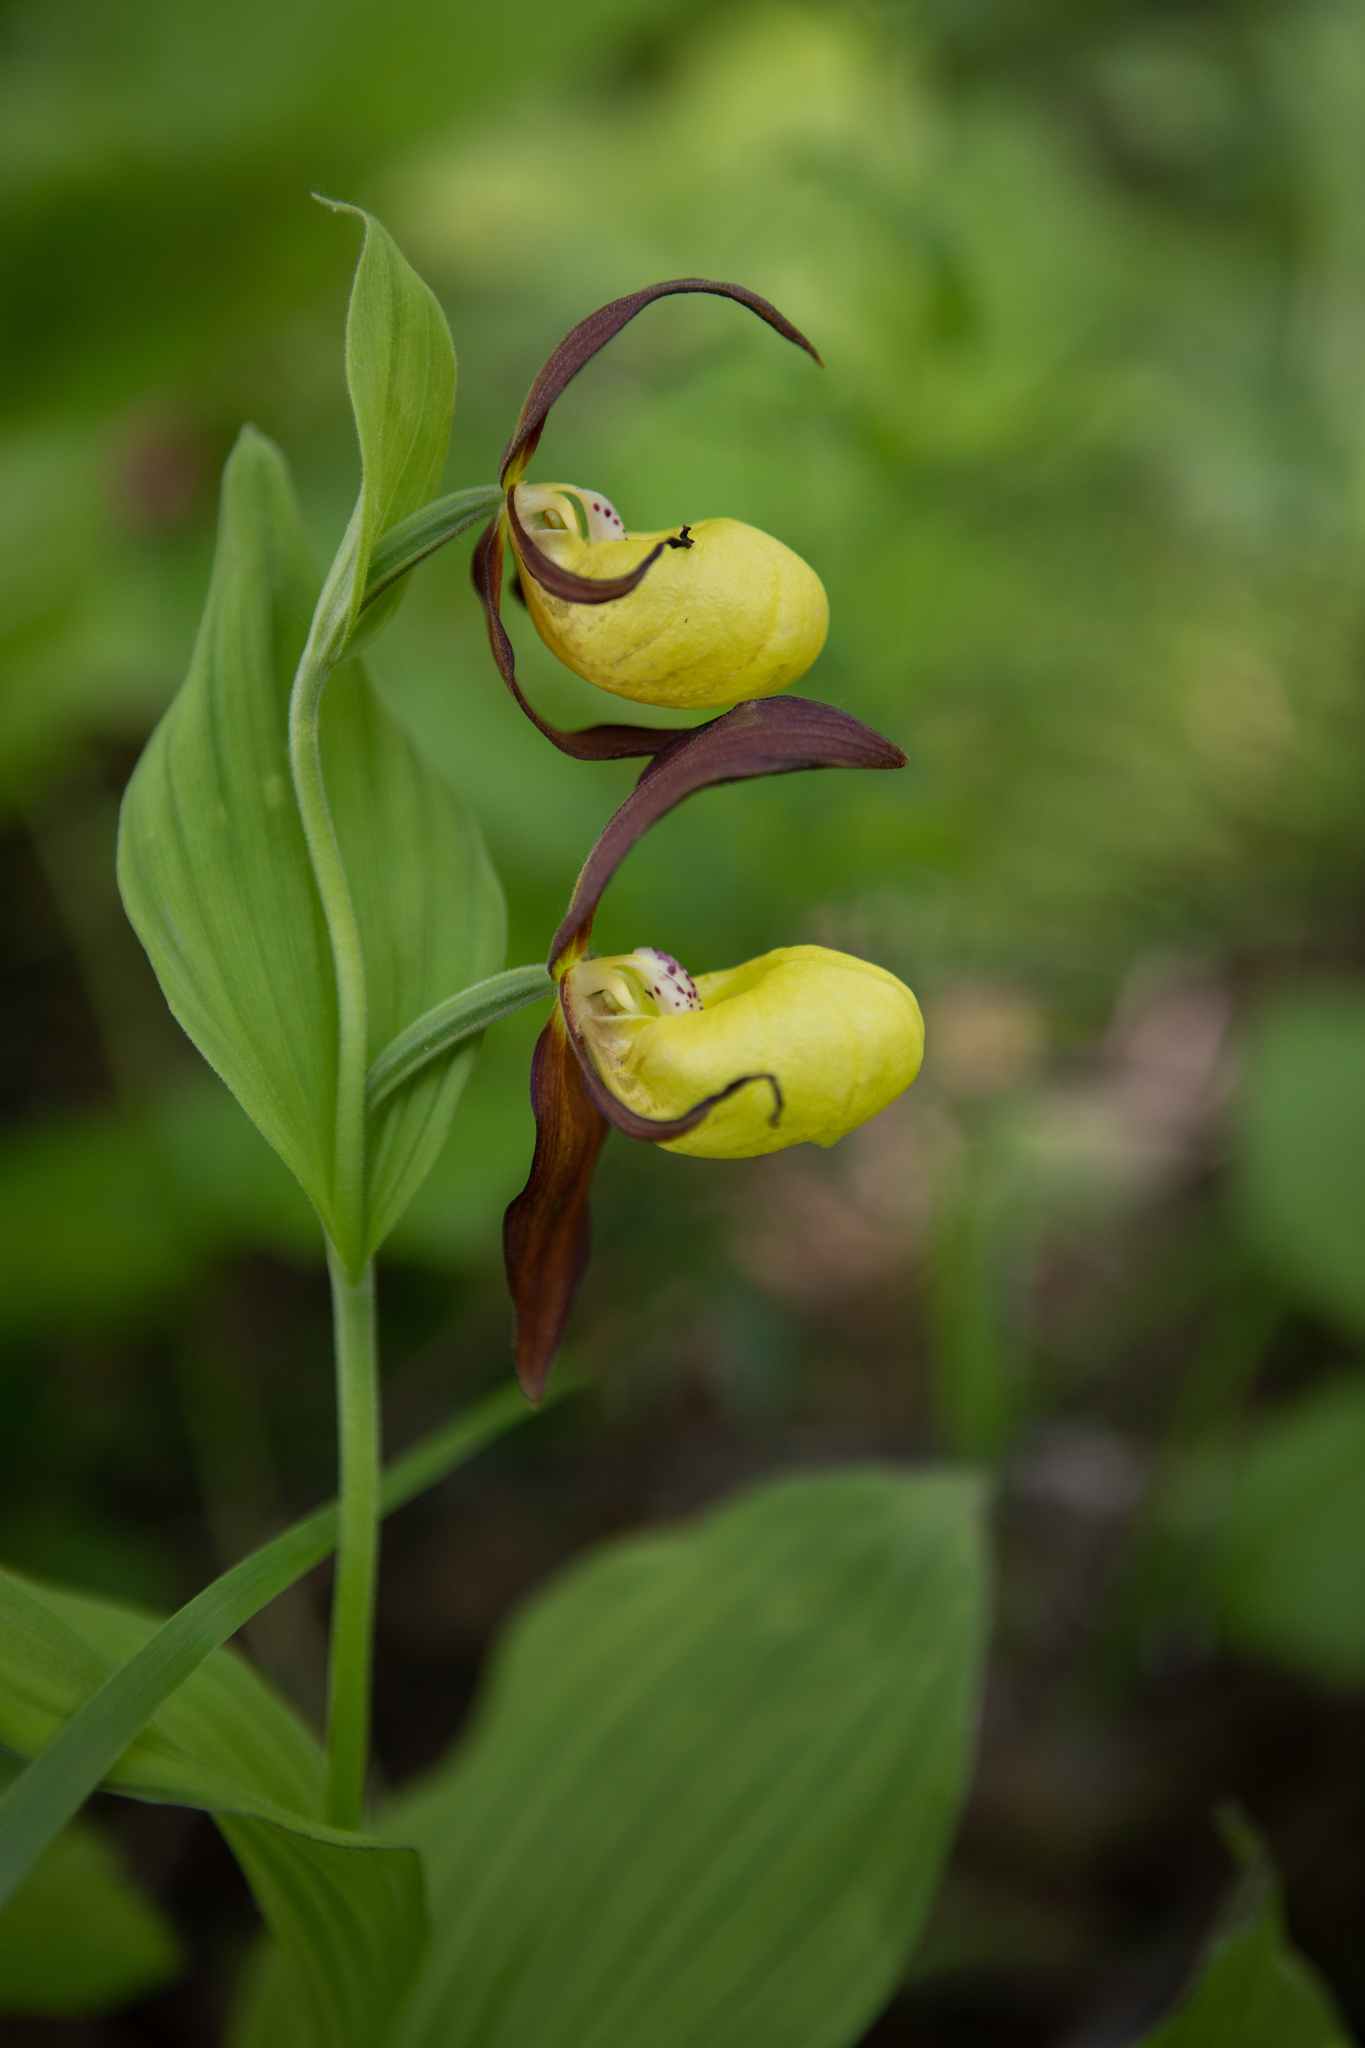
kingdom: Plantae
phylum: Tracheophyta
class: Liliopsida
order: Asparagales
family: Orchidaceae
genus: Cypripedium
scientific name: Cypripedium calceolus
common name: Lady's-slipper
